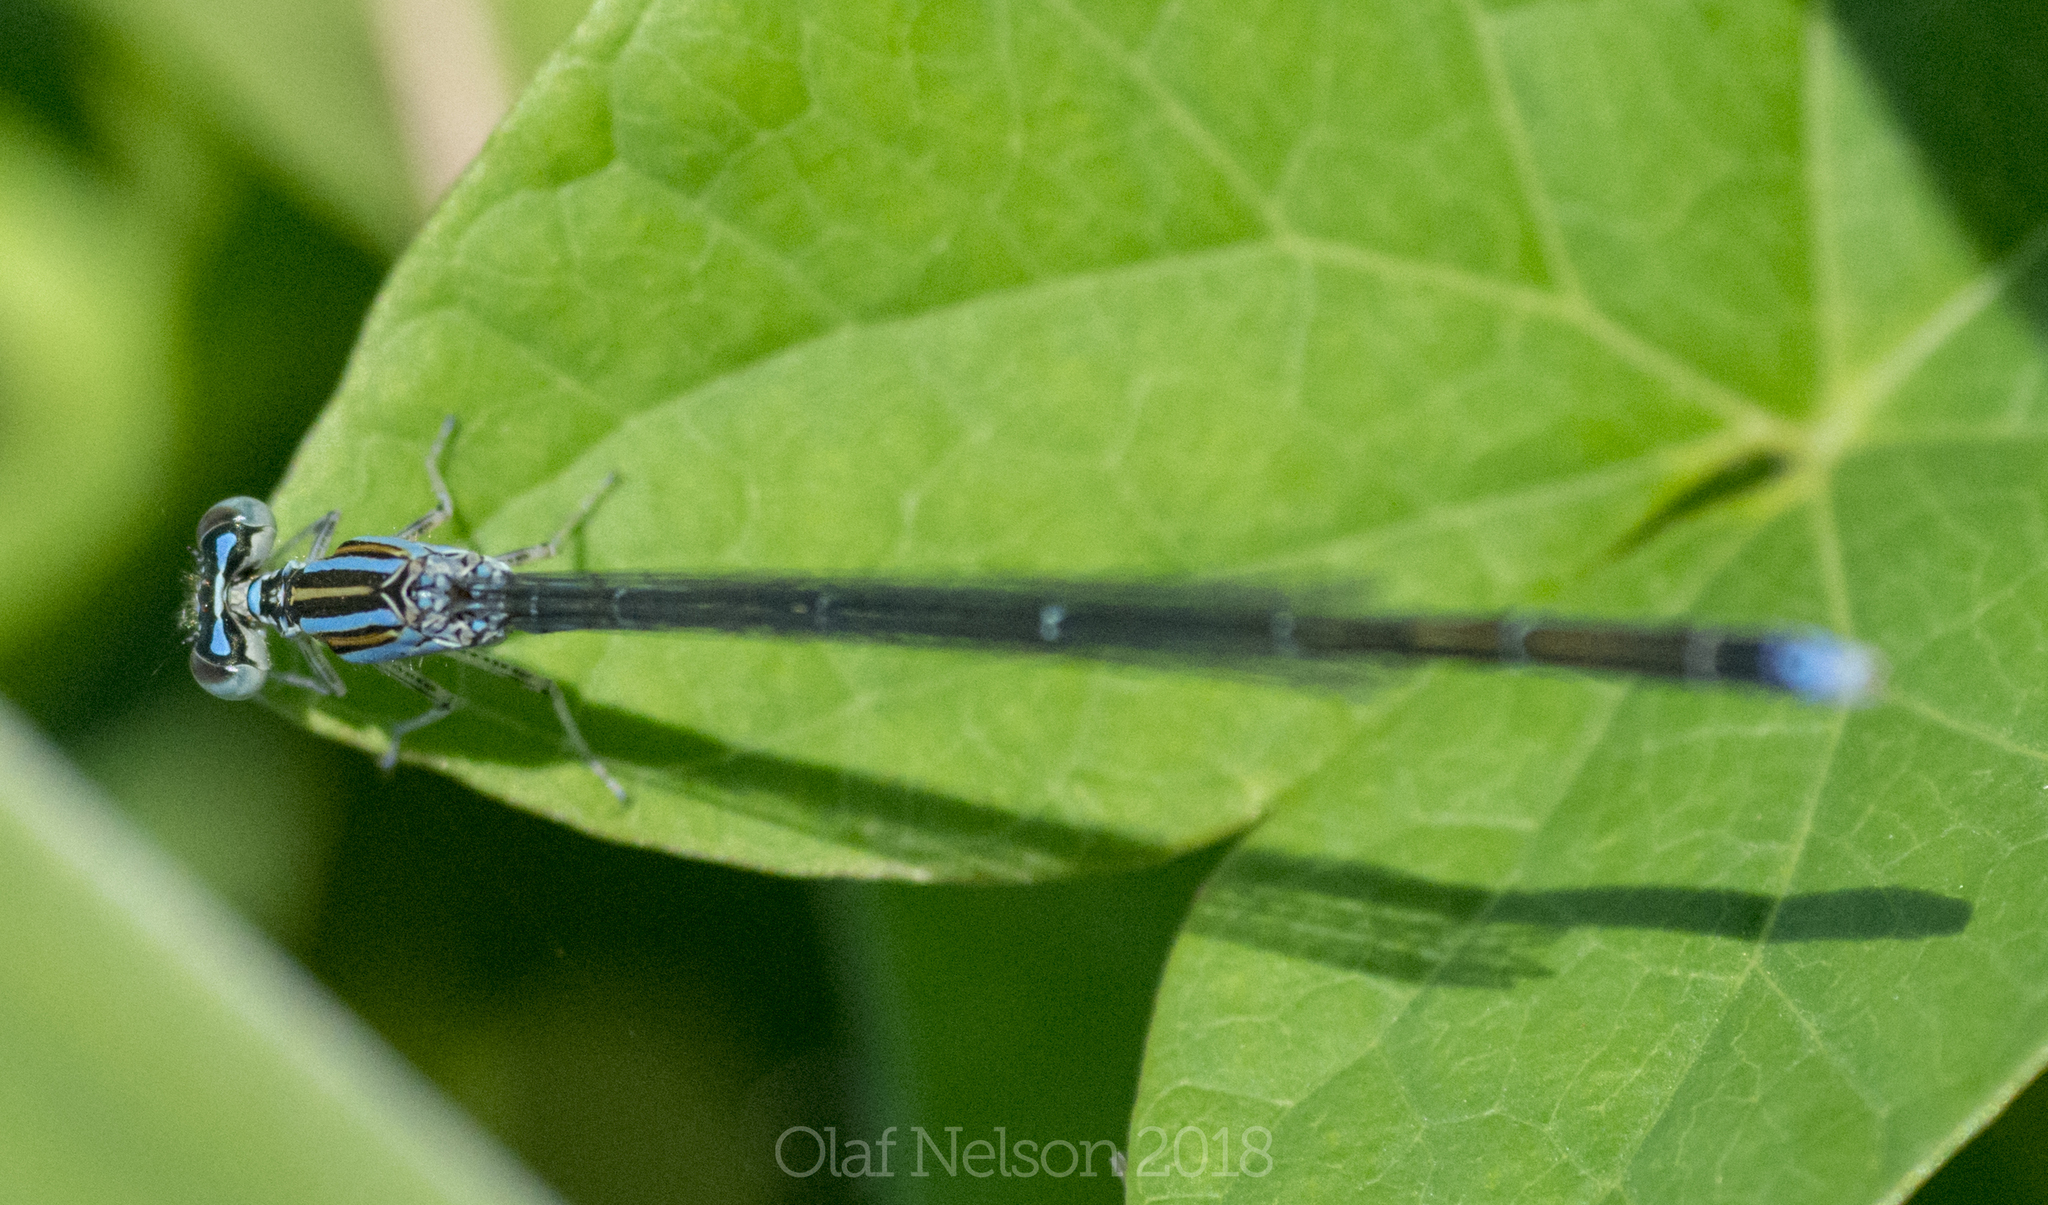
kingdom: Animalia
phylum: Arthropoda
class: Insecta
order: Odonata
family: Coenagrionidae
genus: Enallagma
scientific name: Enallagma exsulans
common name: Stream bluet
